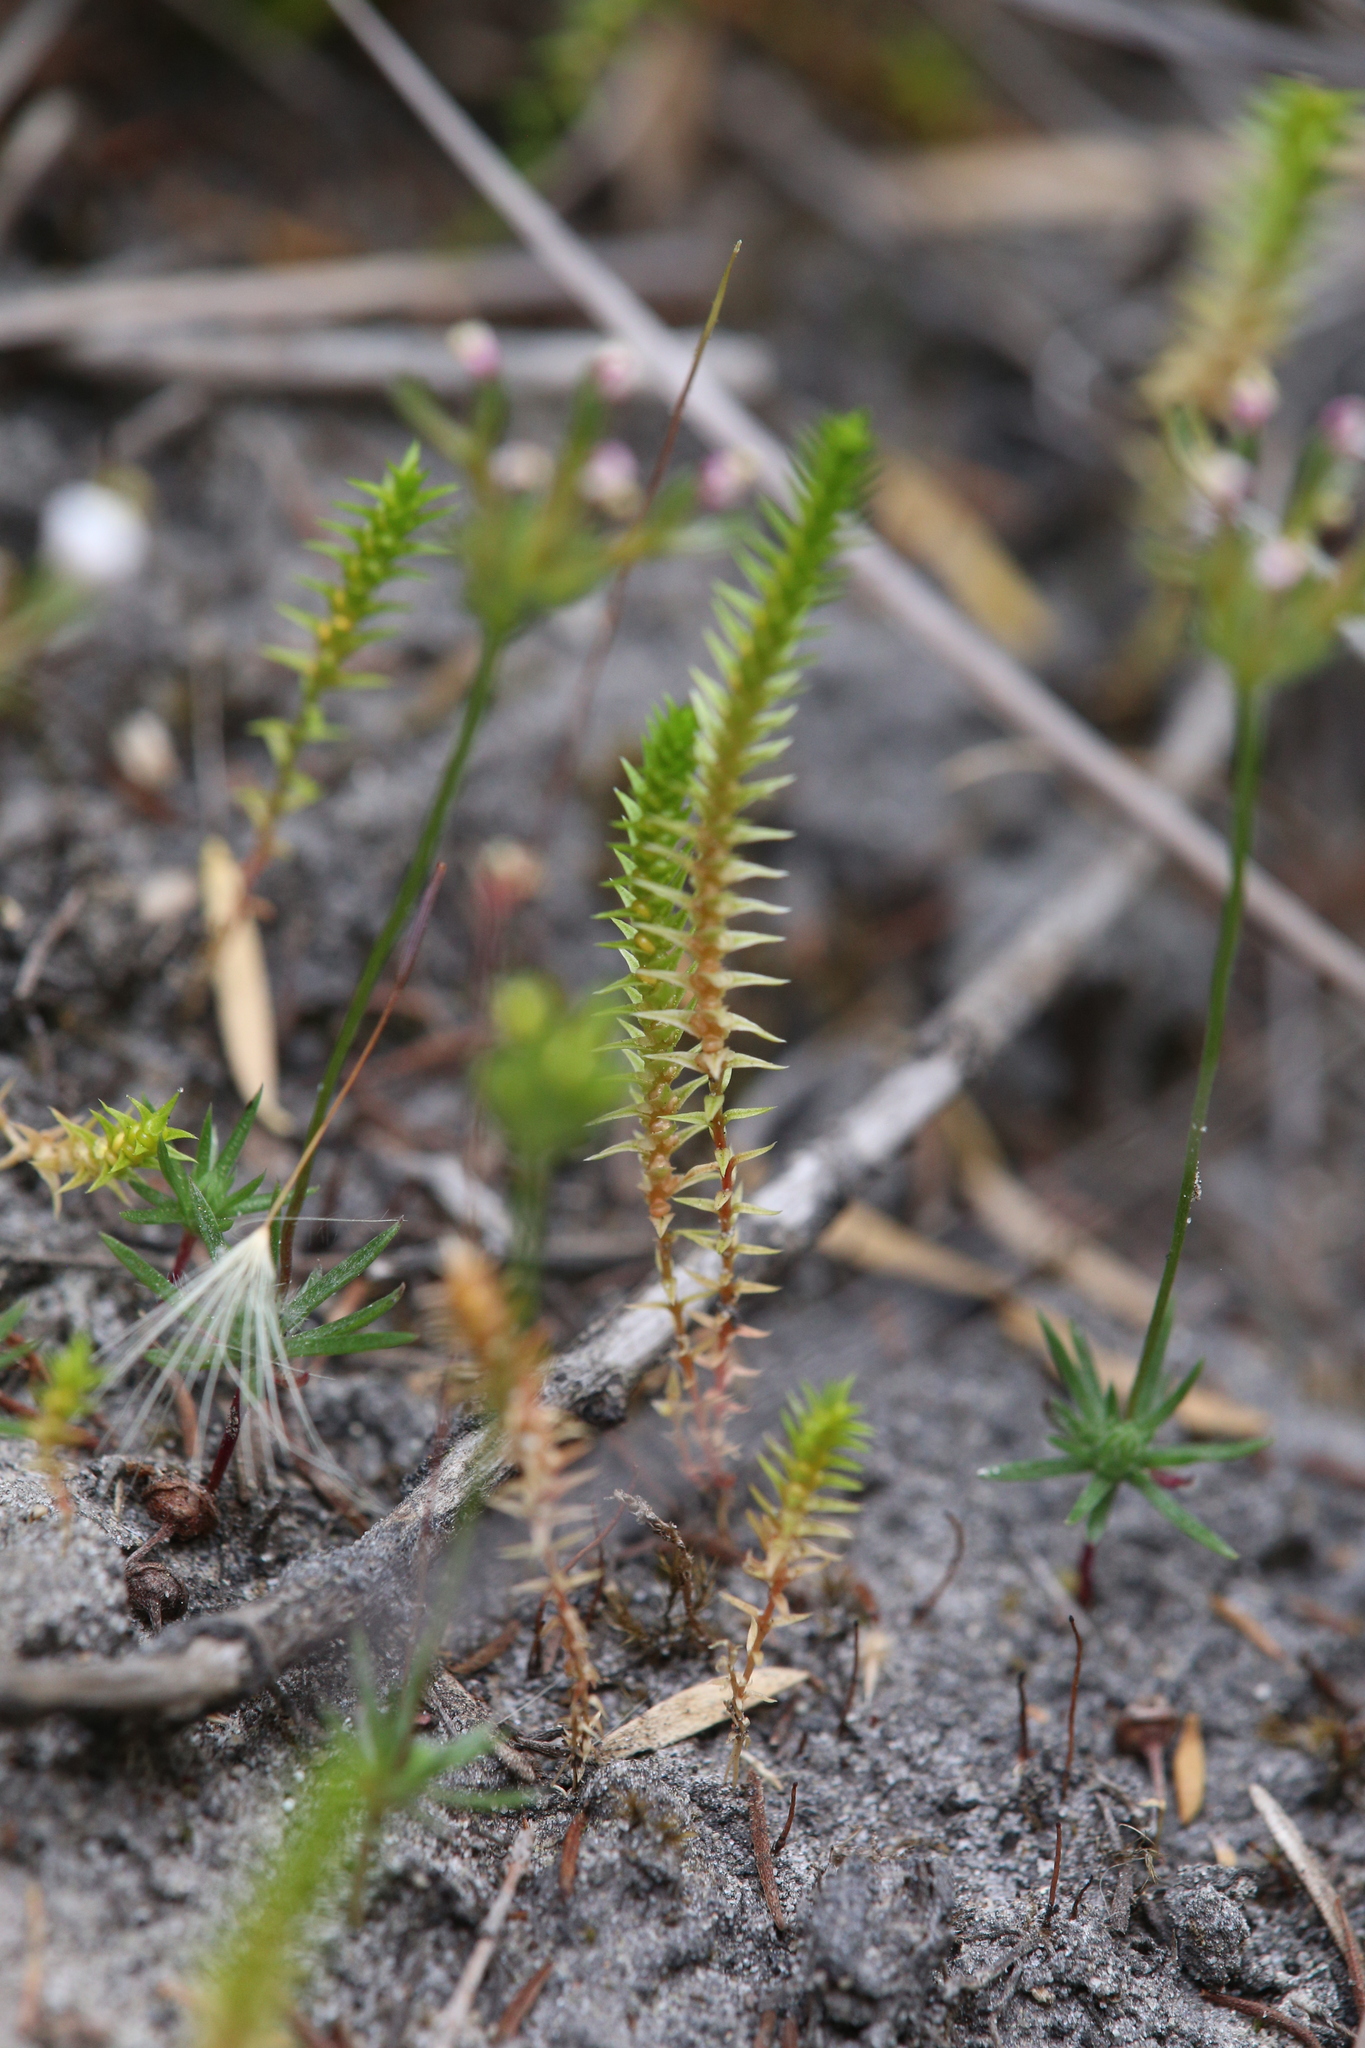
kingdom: Plantae
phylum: Tracheophyta
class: Lycopodiopsida
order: Selaginellales
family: Selaginellaceae
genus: Selaginella
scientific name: Selaginella gracillima
